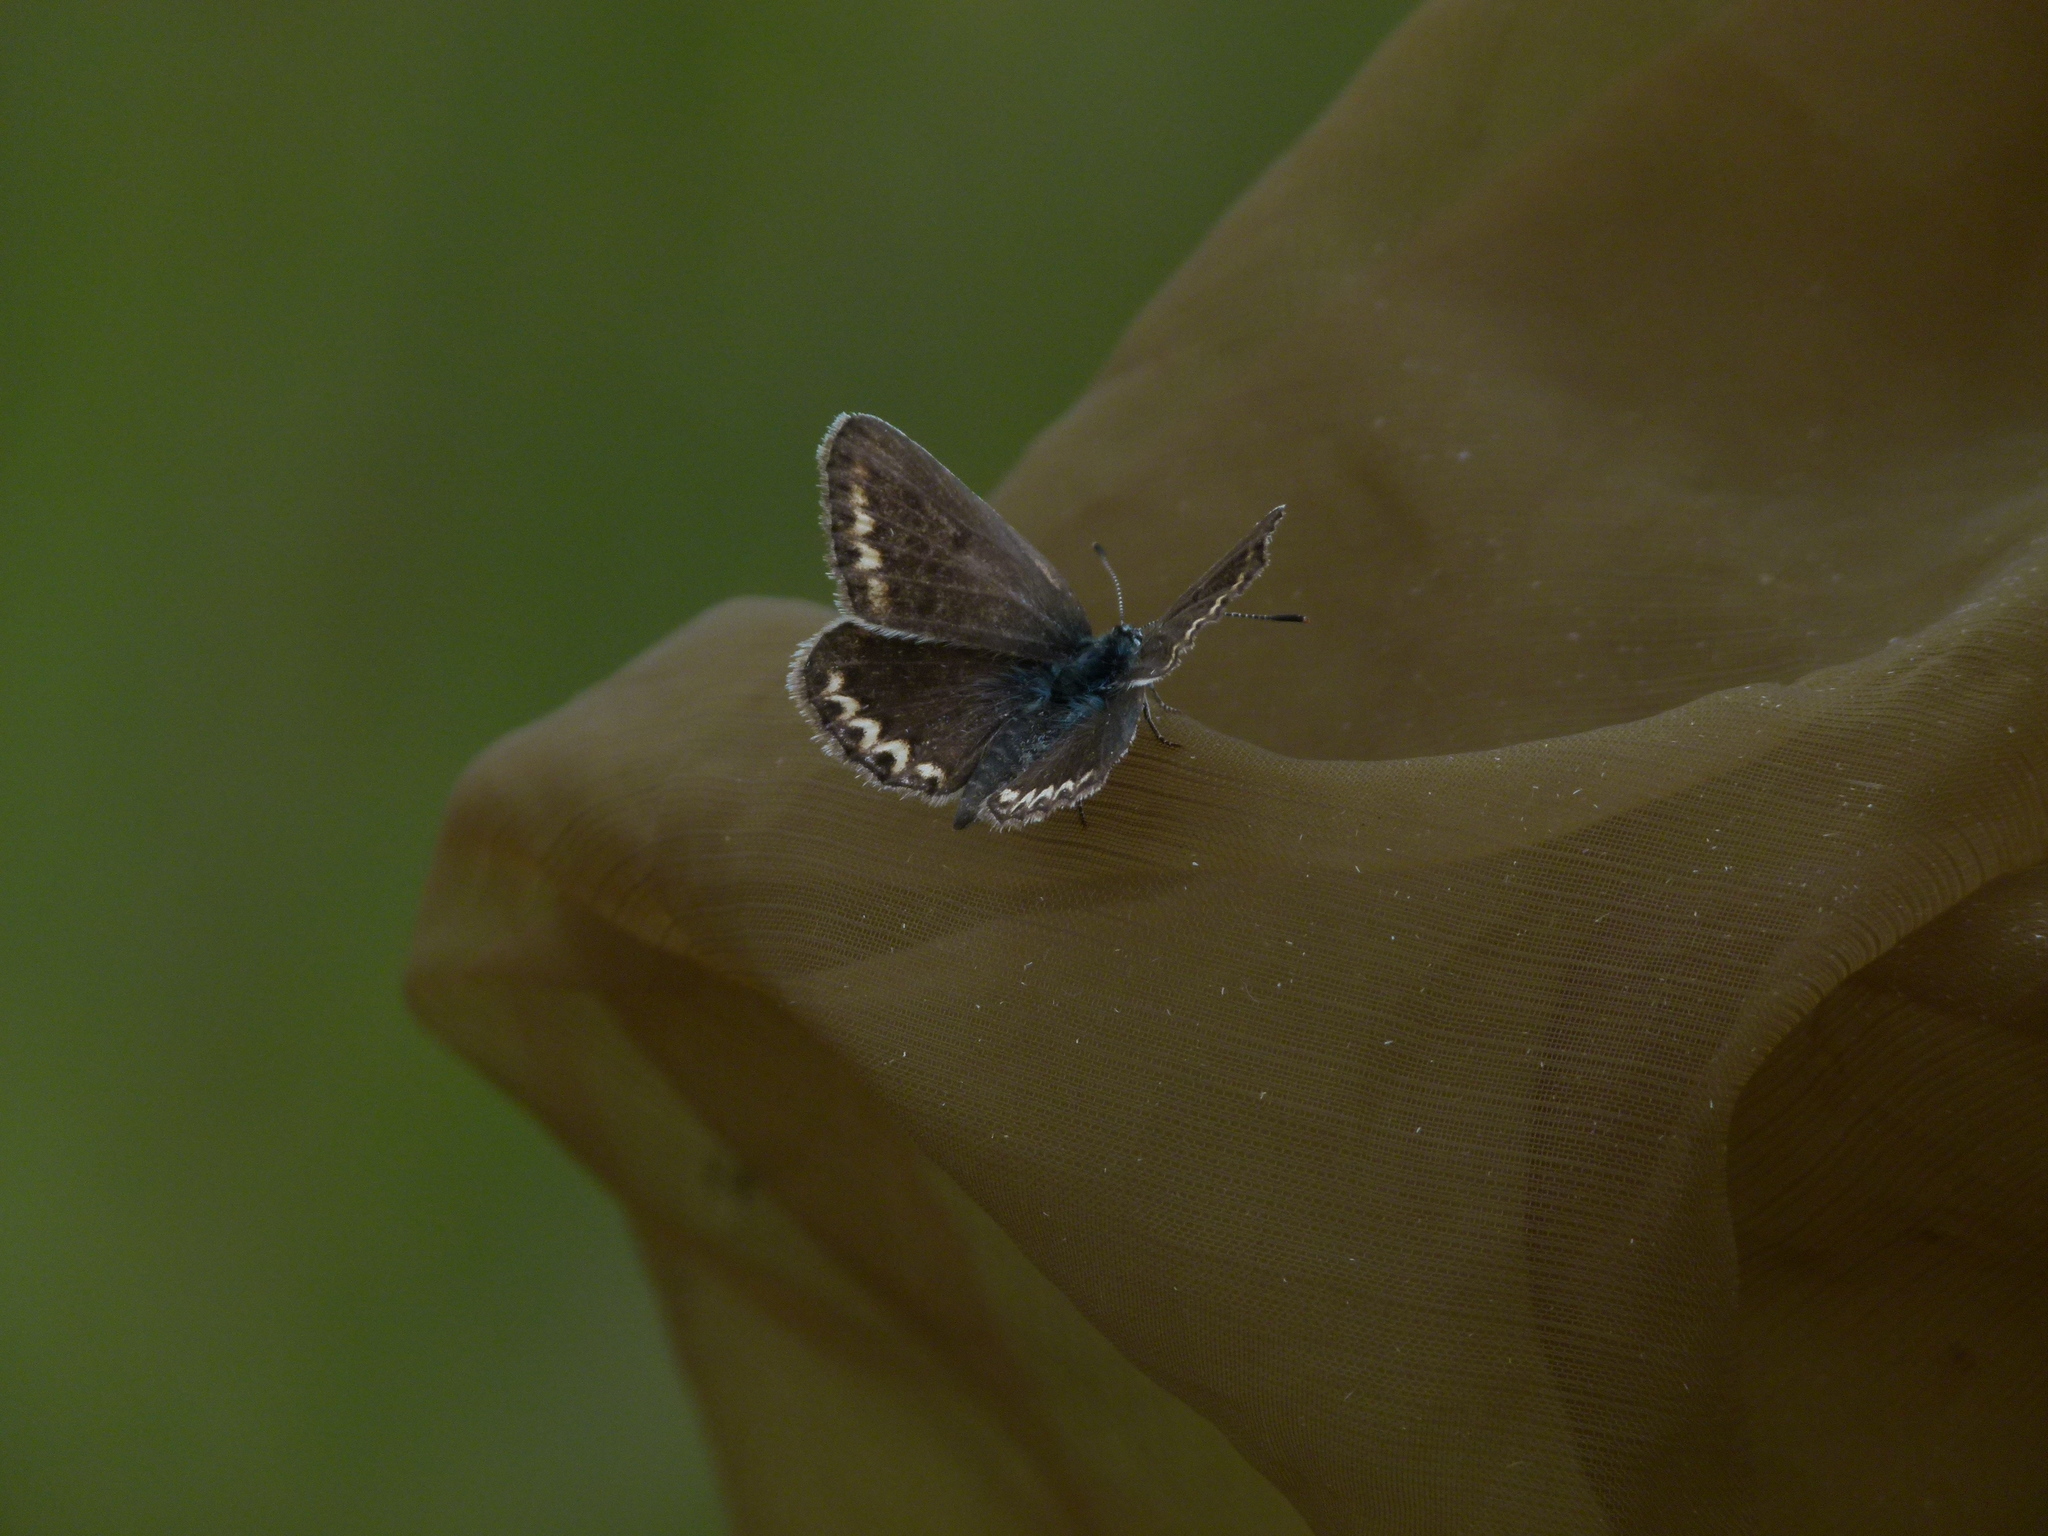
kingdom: Animalia
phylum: Arthropoda
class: Insecta
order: Lepidoptera
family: Lycaenidae
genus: Plebejus
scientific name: Plebejus argus
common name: Silver-studded blue
